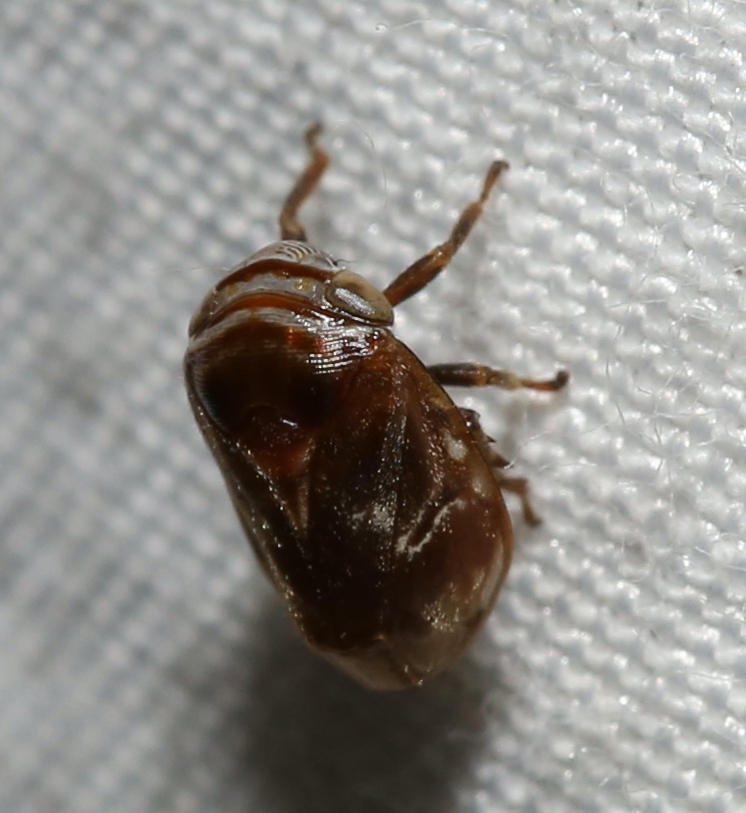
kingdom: Animalia
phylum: Arthropoda
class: Insecta
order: Hemiptera
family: Clastopteridae
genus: Clastoptera
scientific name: Clastoptera obtusa
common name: Alder spittlebug
